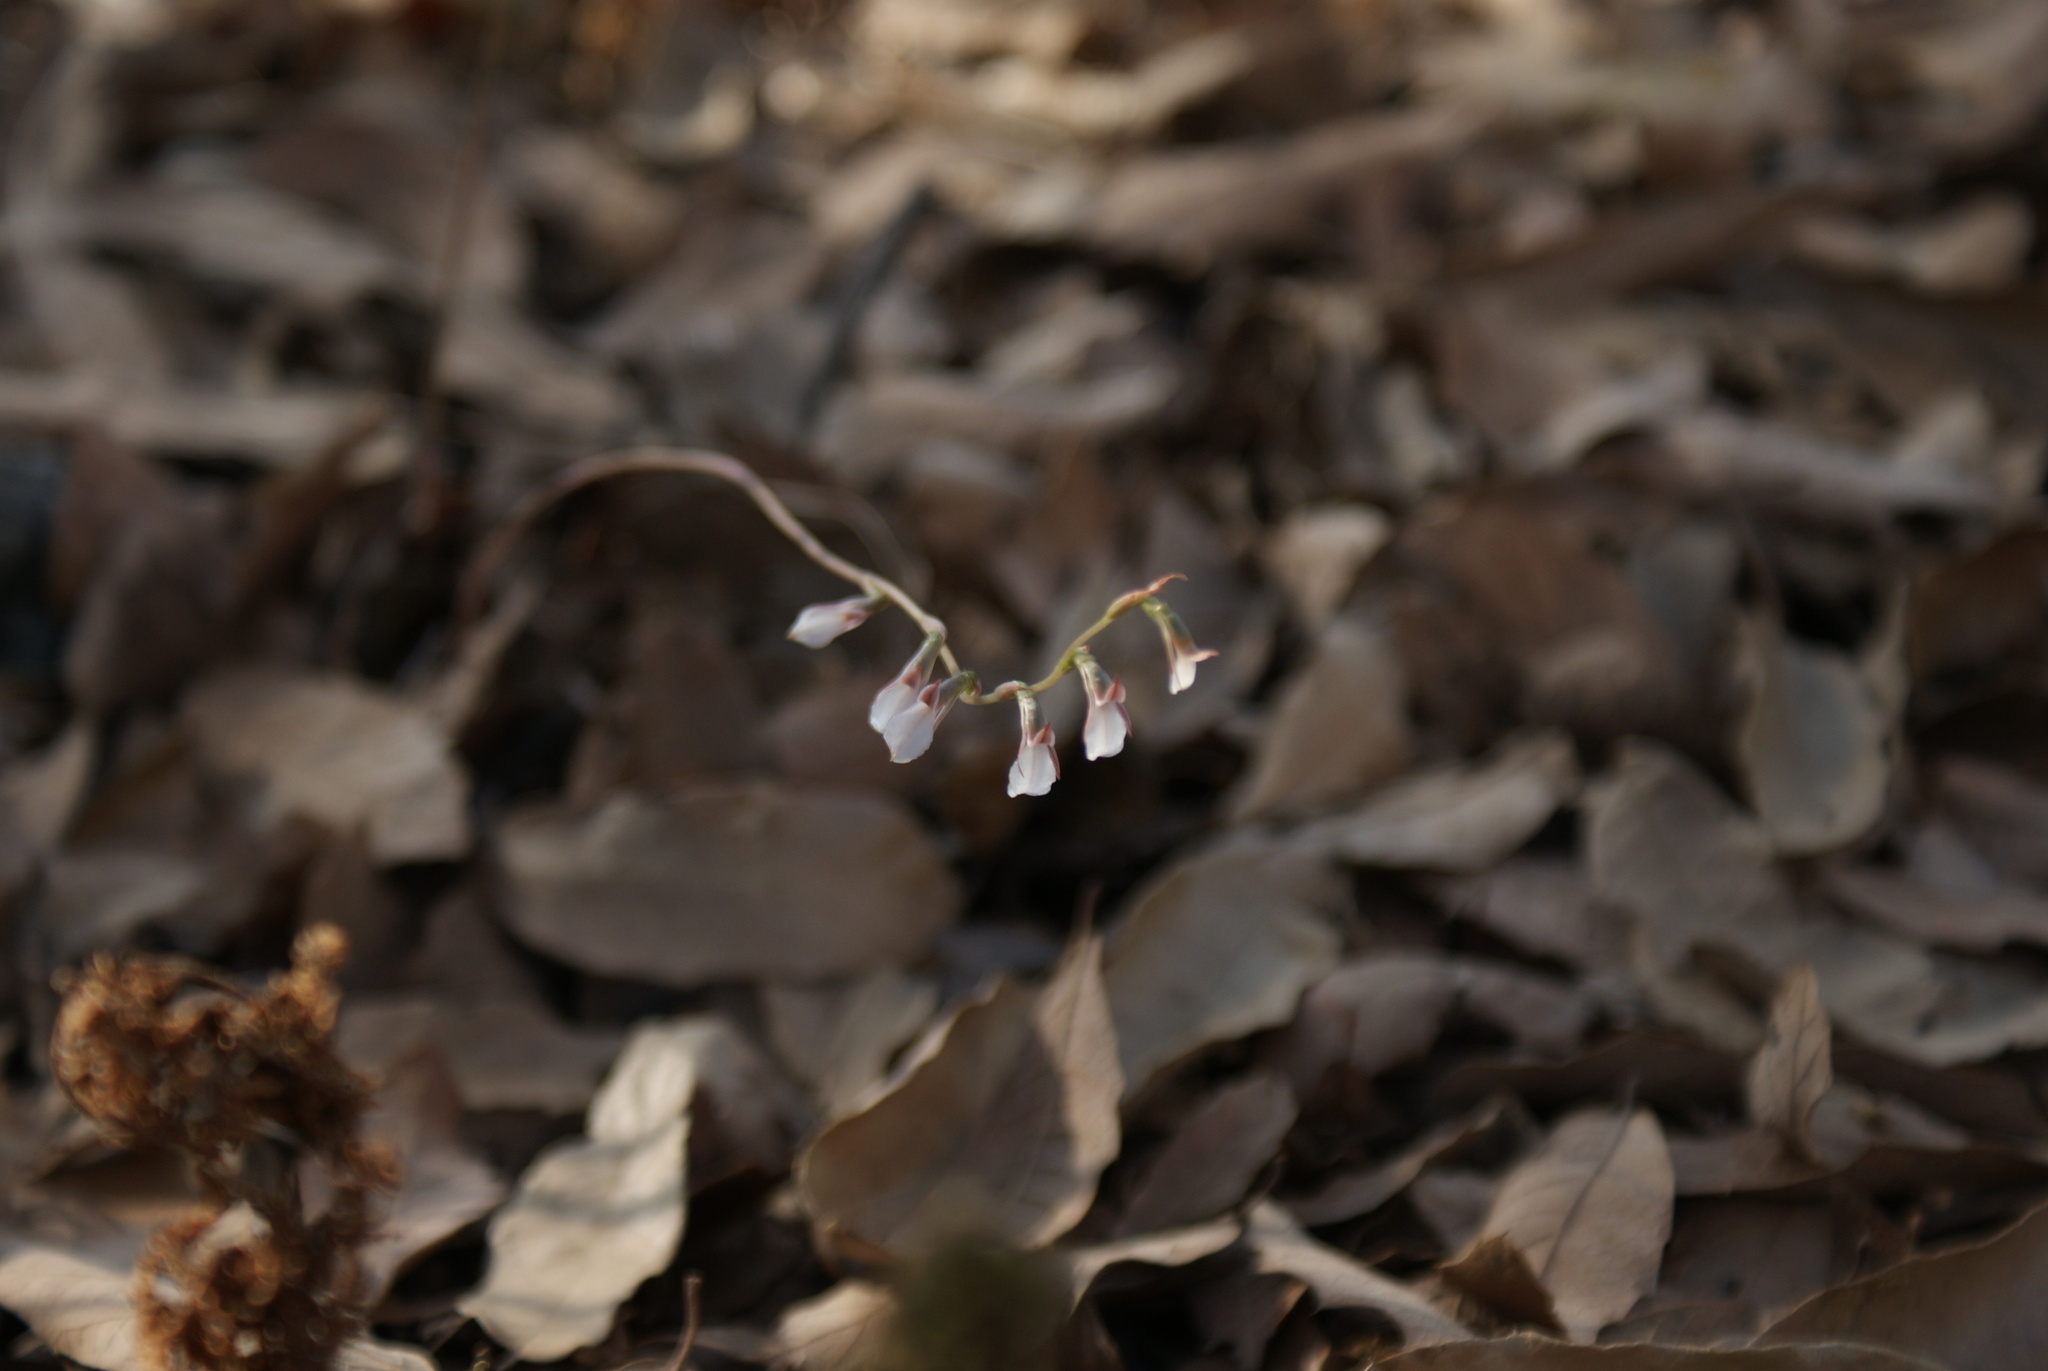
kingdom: Plantae
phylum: Tracheophyta
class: Liliopsida
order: Asparagales
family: Orchidaceae
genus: Greenwoodiella
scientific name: Greenwoodiella micrantha
